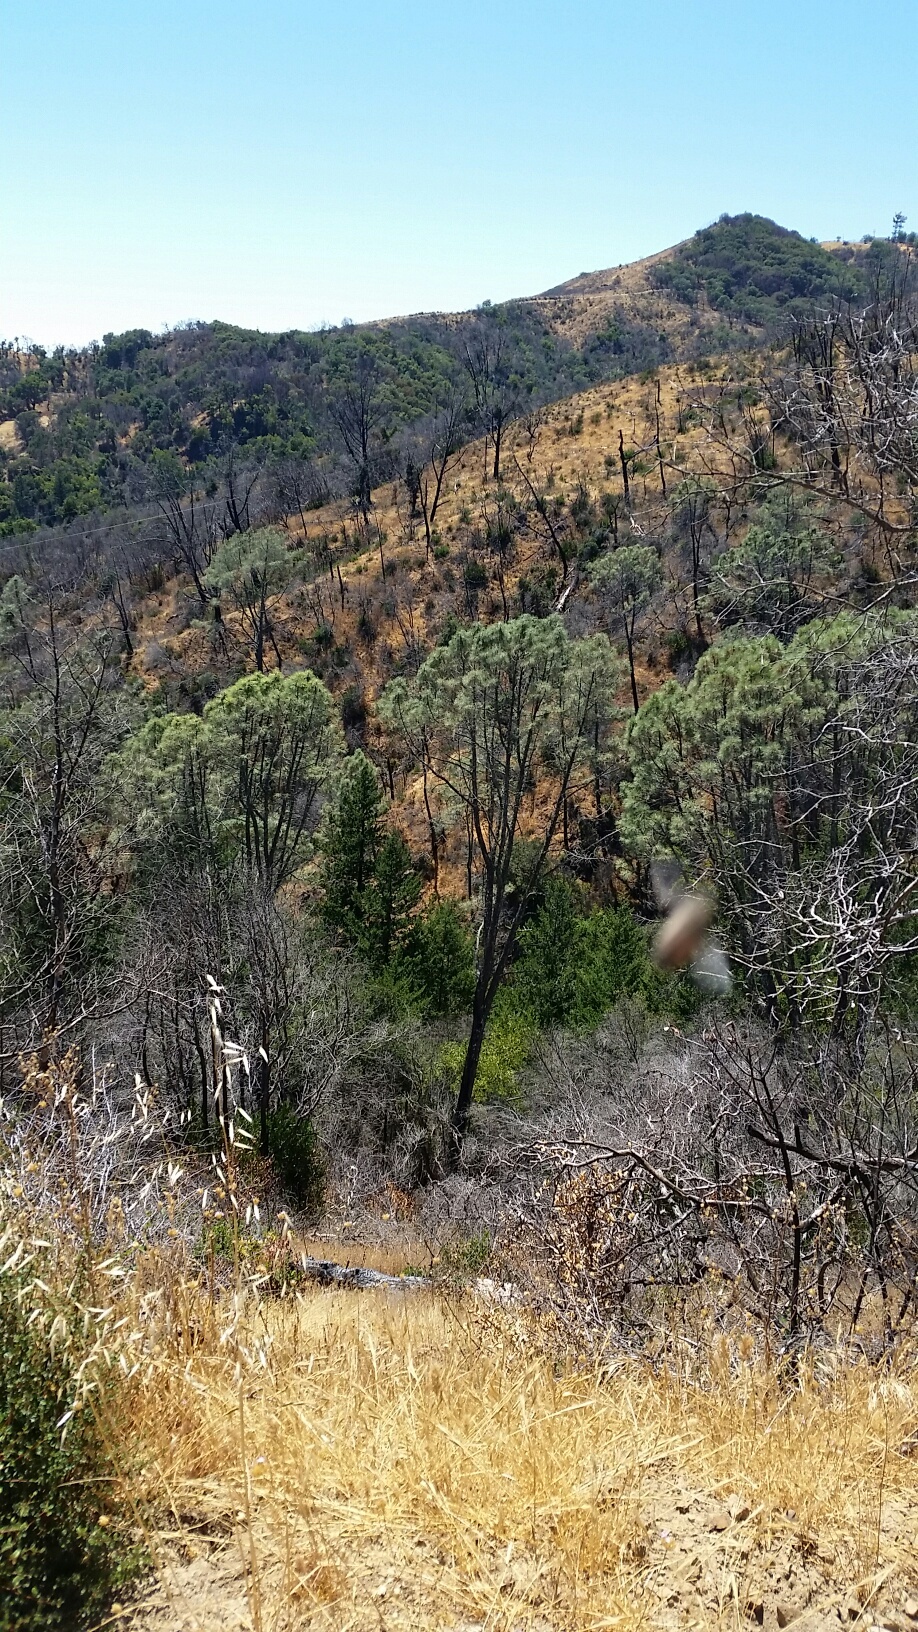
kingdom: Plantae
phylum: Tracheophyta
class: Pinopsida
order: Pinales
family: Pinaceae
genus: Pinus
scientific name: Pinus sabiniana
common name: Bull pine
